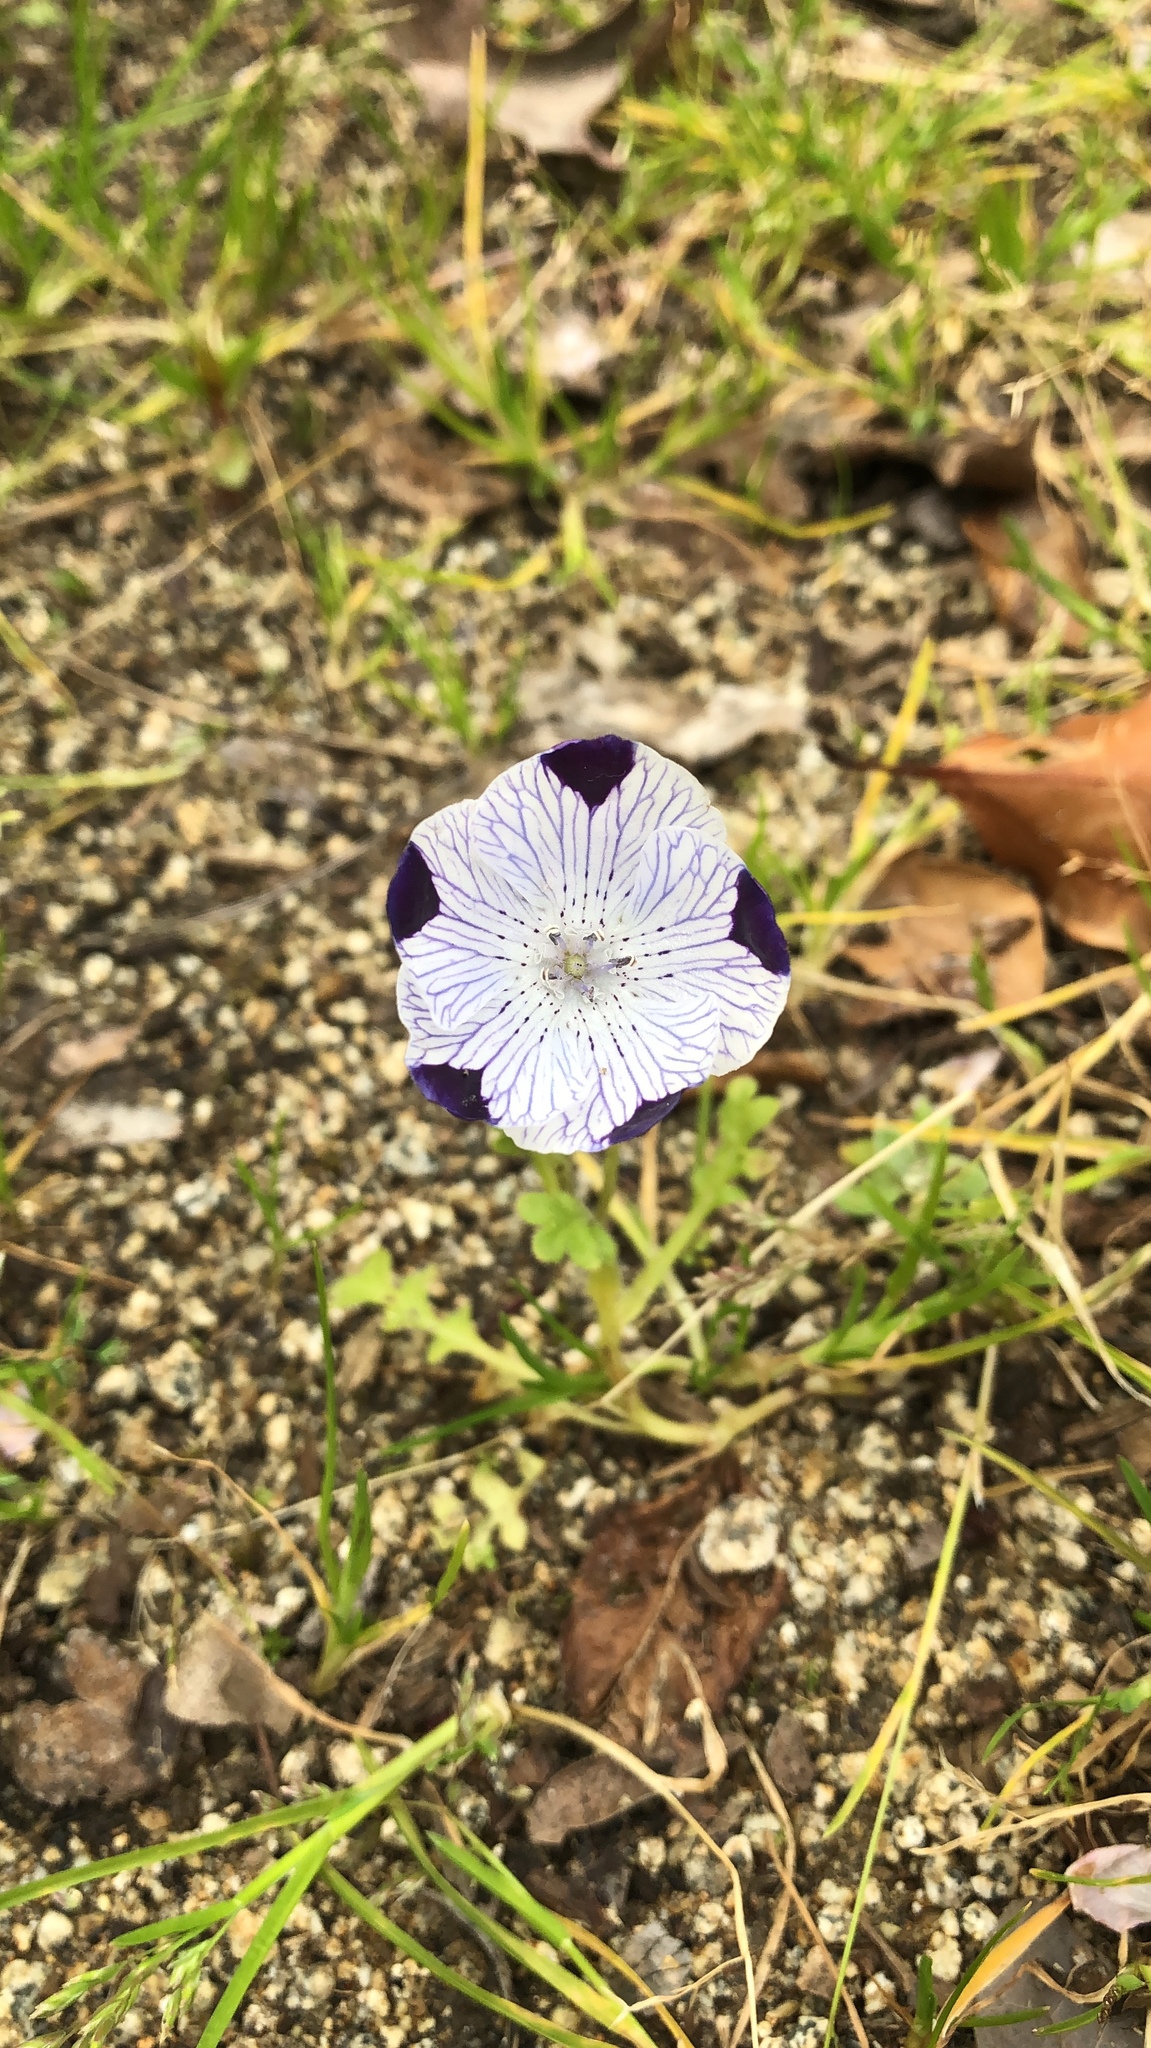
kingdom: Plantae
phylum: Tracheophyta
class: Magnoliopsida
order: Boraginales
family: Hydrophyllaceae
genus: Nemophila
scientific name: Nemophila maculata
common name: Fivespot
